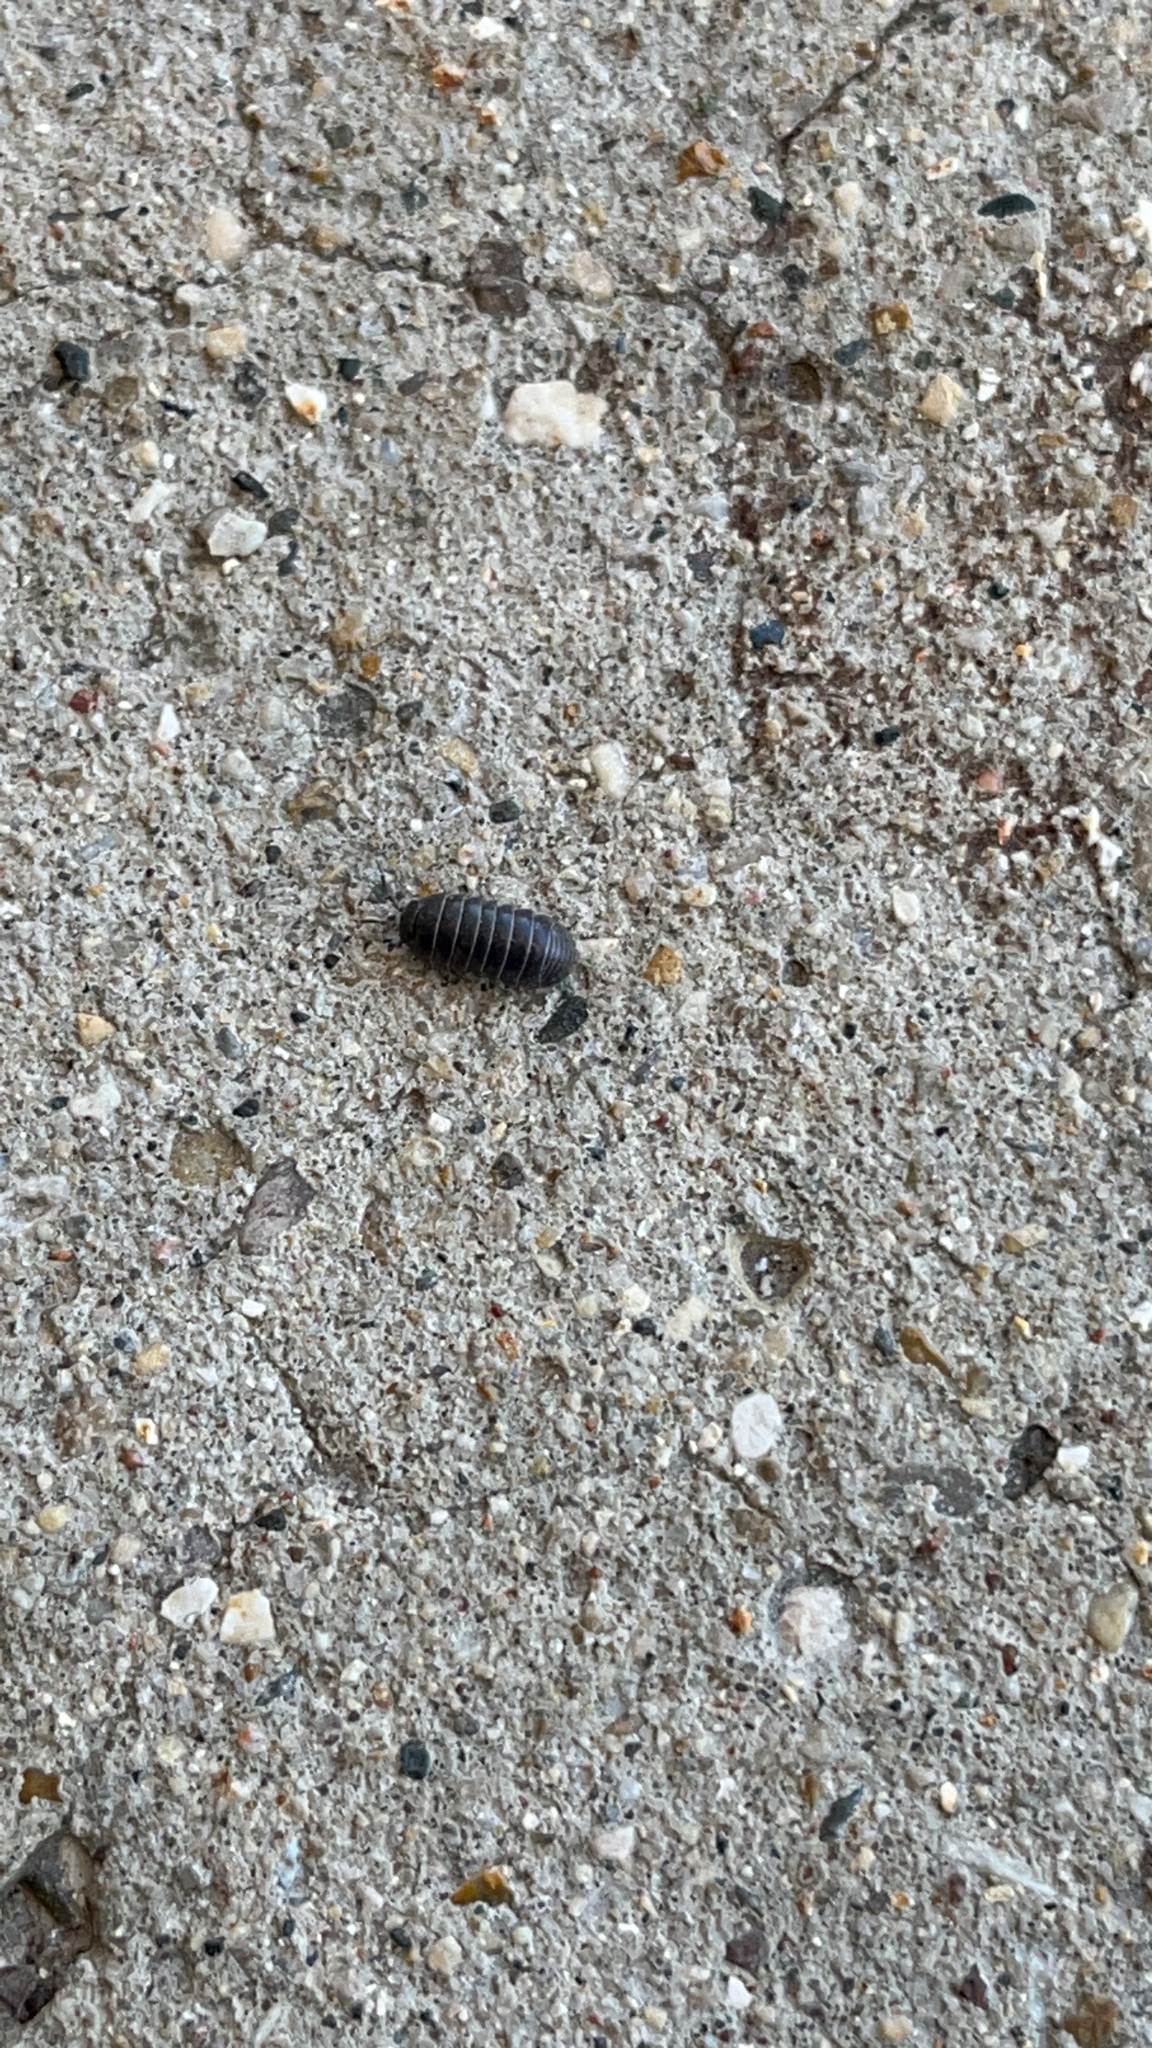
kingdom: Animalia
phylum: Arthropoda
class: Malacostraca
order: Isopoda
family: Armadillidiidae
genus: Armadillidium
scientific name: Armadillidium vulgare
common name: Common pill woodlouse
